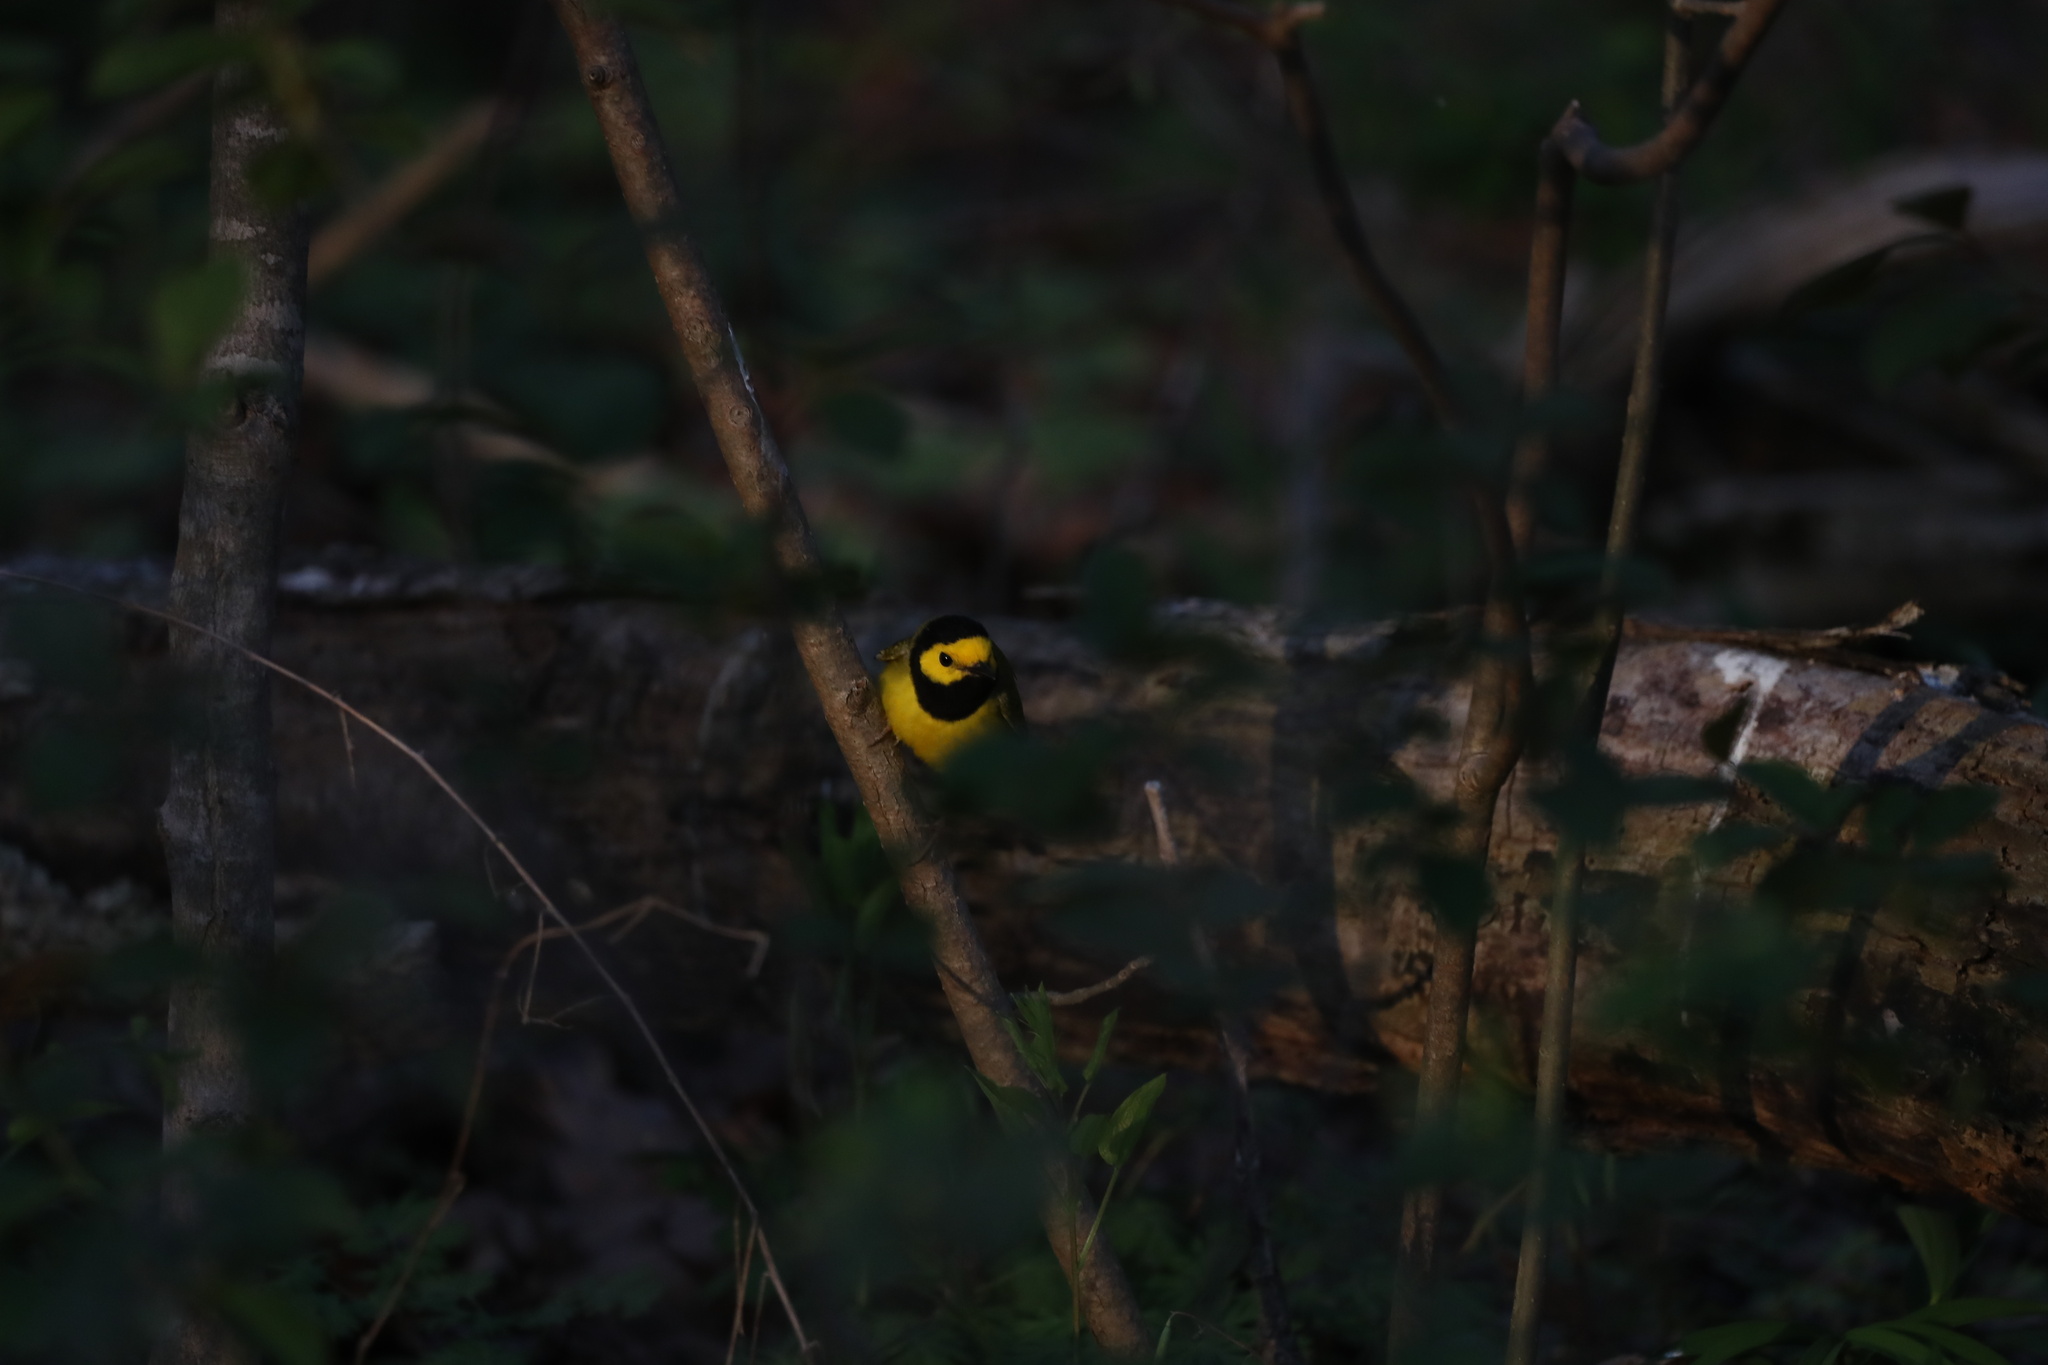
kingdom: Animalia
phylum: Chordata
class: Aves
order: Passeriformes
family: Parulidae
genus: Setophaga
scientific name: Setophaga citrina
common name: Hooded warbler
